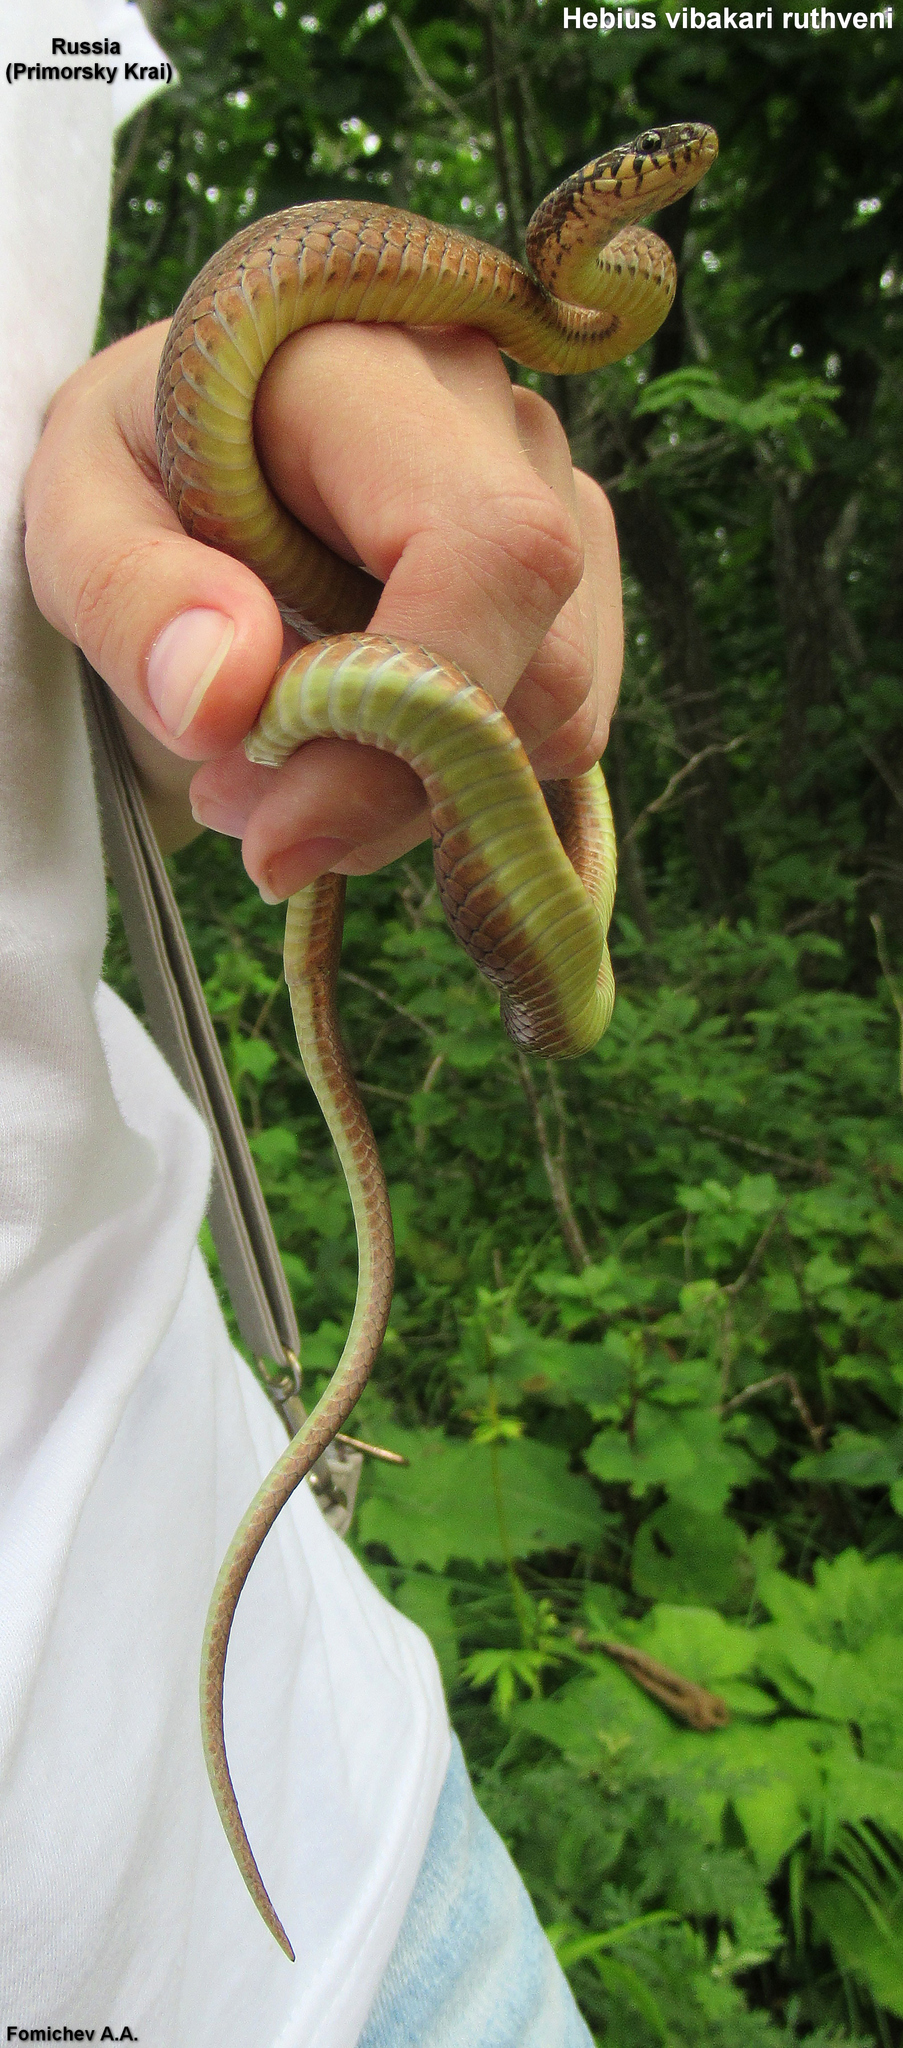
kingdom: Animalia
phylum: Chordata
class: Squamata
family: Colubridae
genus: Hebius
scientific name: Hebius vibakari
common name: Japanese keelback
